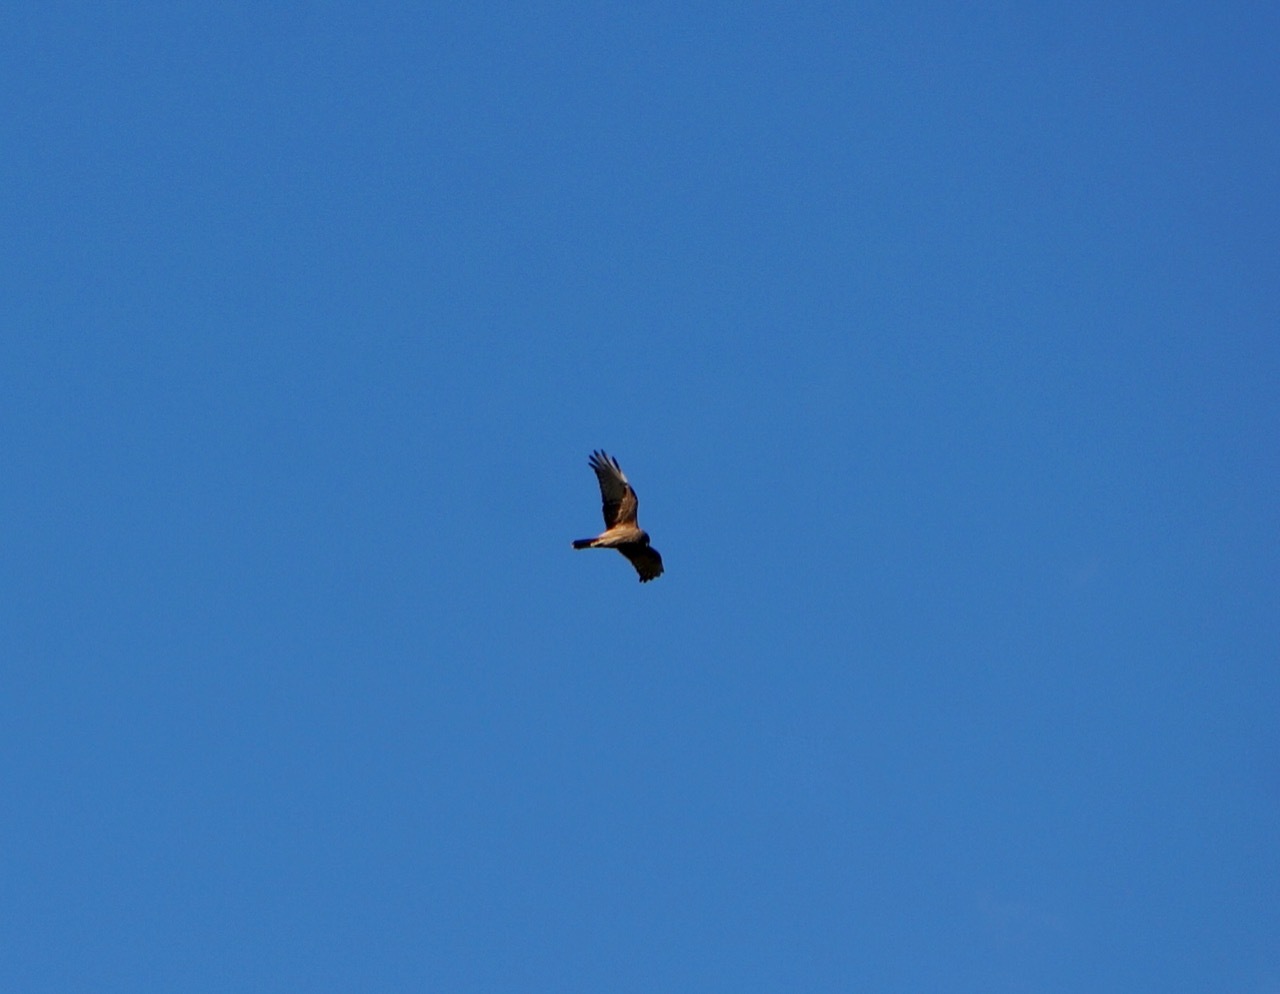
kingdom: Animalia
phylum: Chordata
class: Aves
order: Accipitriformes
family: Accipitridae
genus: Circus
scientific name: Circus approximans
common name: Swamp harrier
